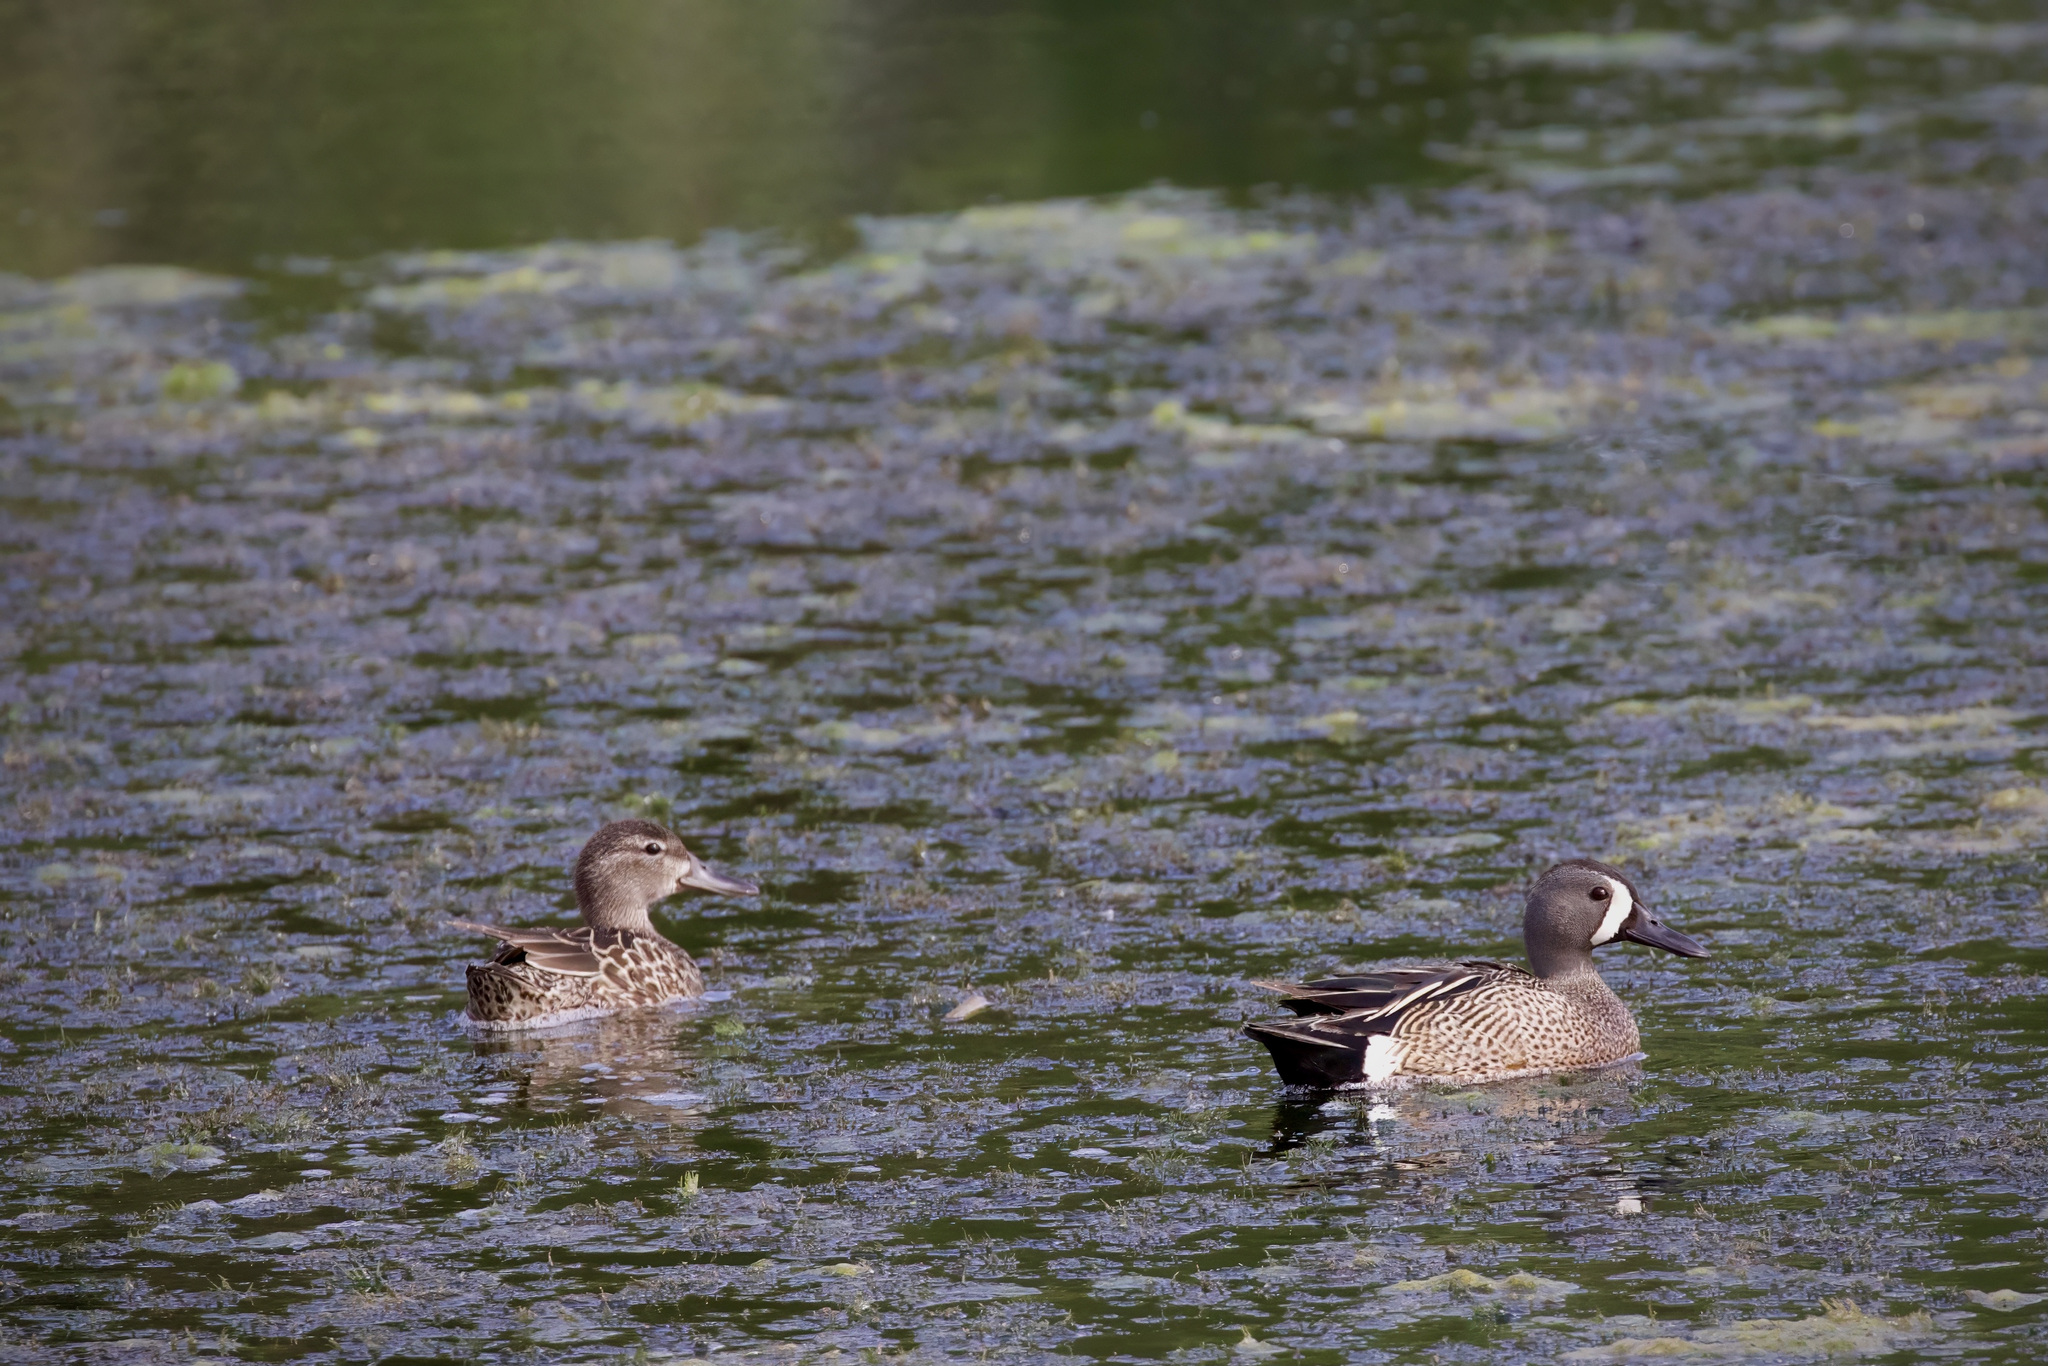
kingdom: Animalia
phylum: Chordata
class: Aves
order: Anseriformes
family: Anatidae
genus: Spatula
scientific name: Spatula discors
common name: Blue-winged teal
